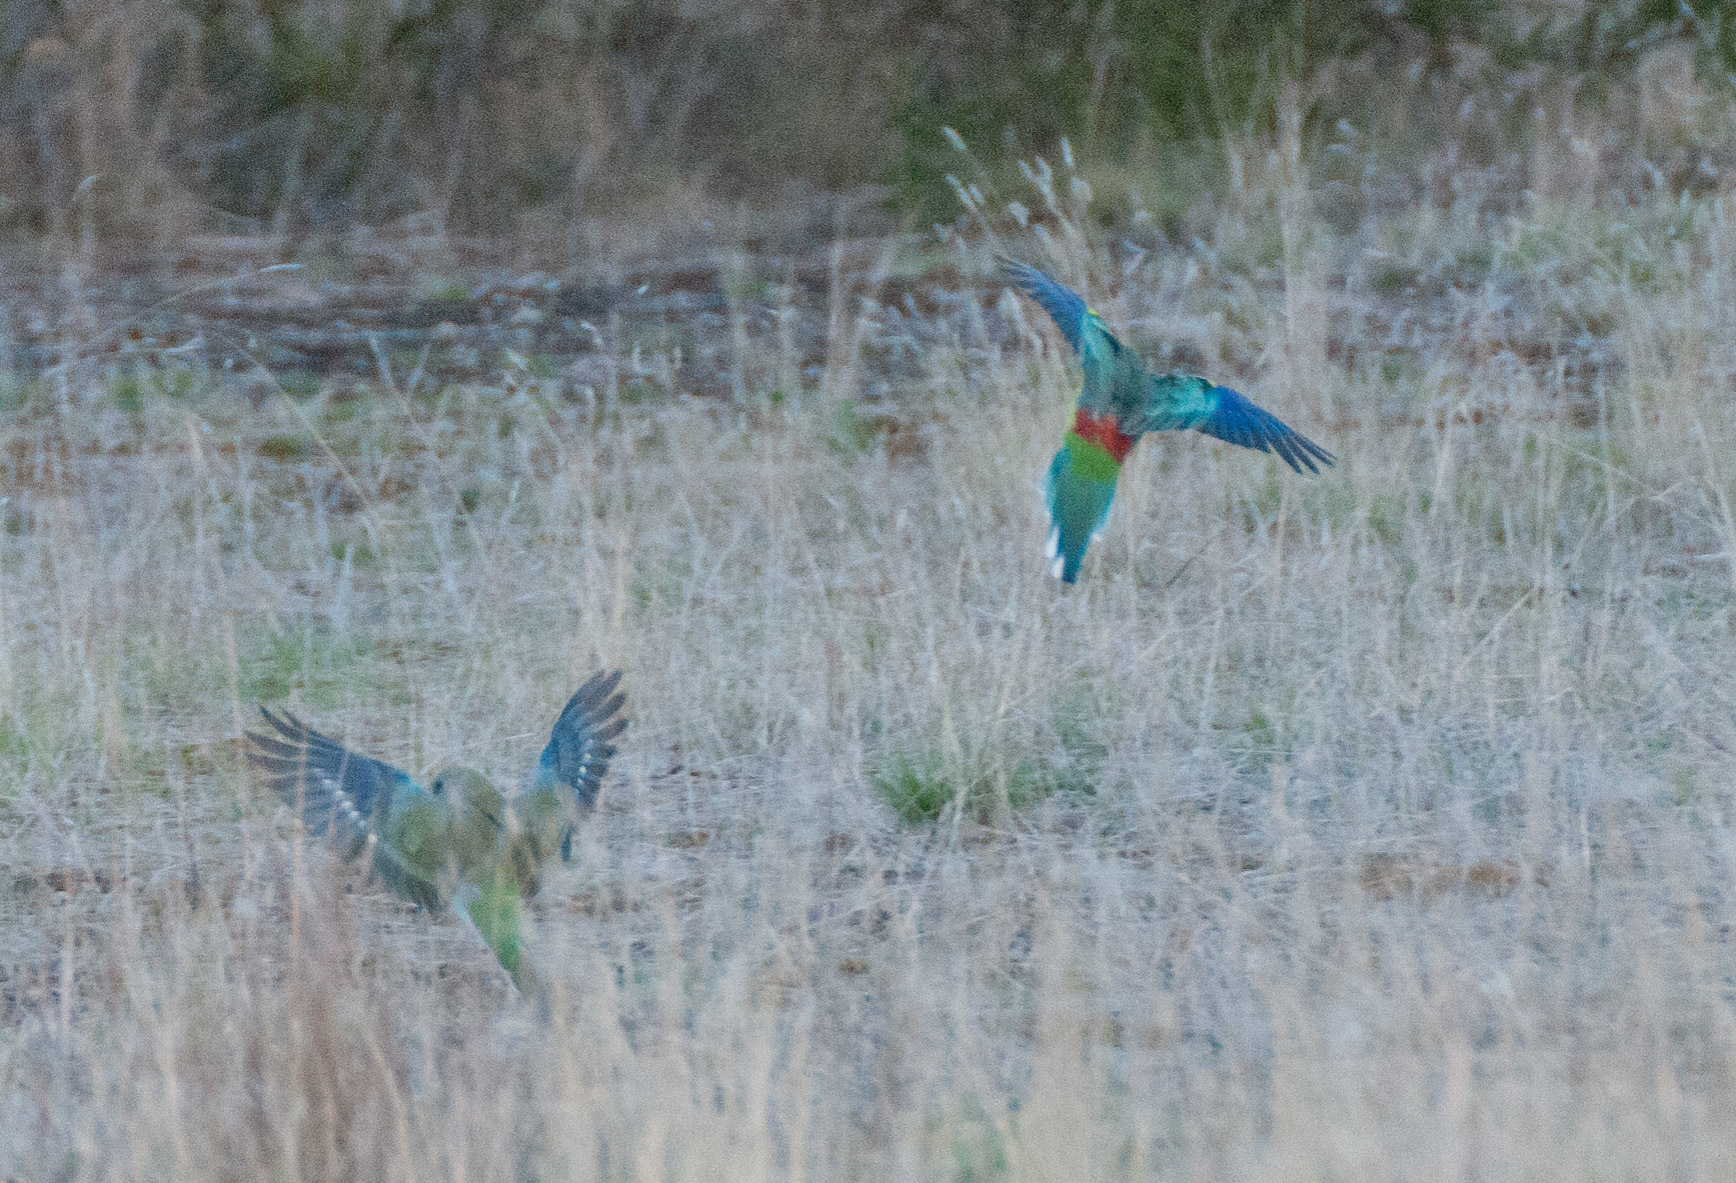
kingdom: Animalia
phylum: Chordata
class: Aves
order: Psittaciformes
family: Psittacidae
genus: Psephotus
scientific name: Psephotus haematonotus
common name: Red-rumped parrot
